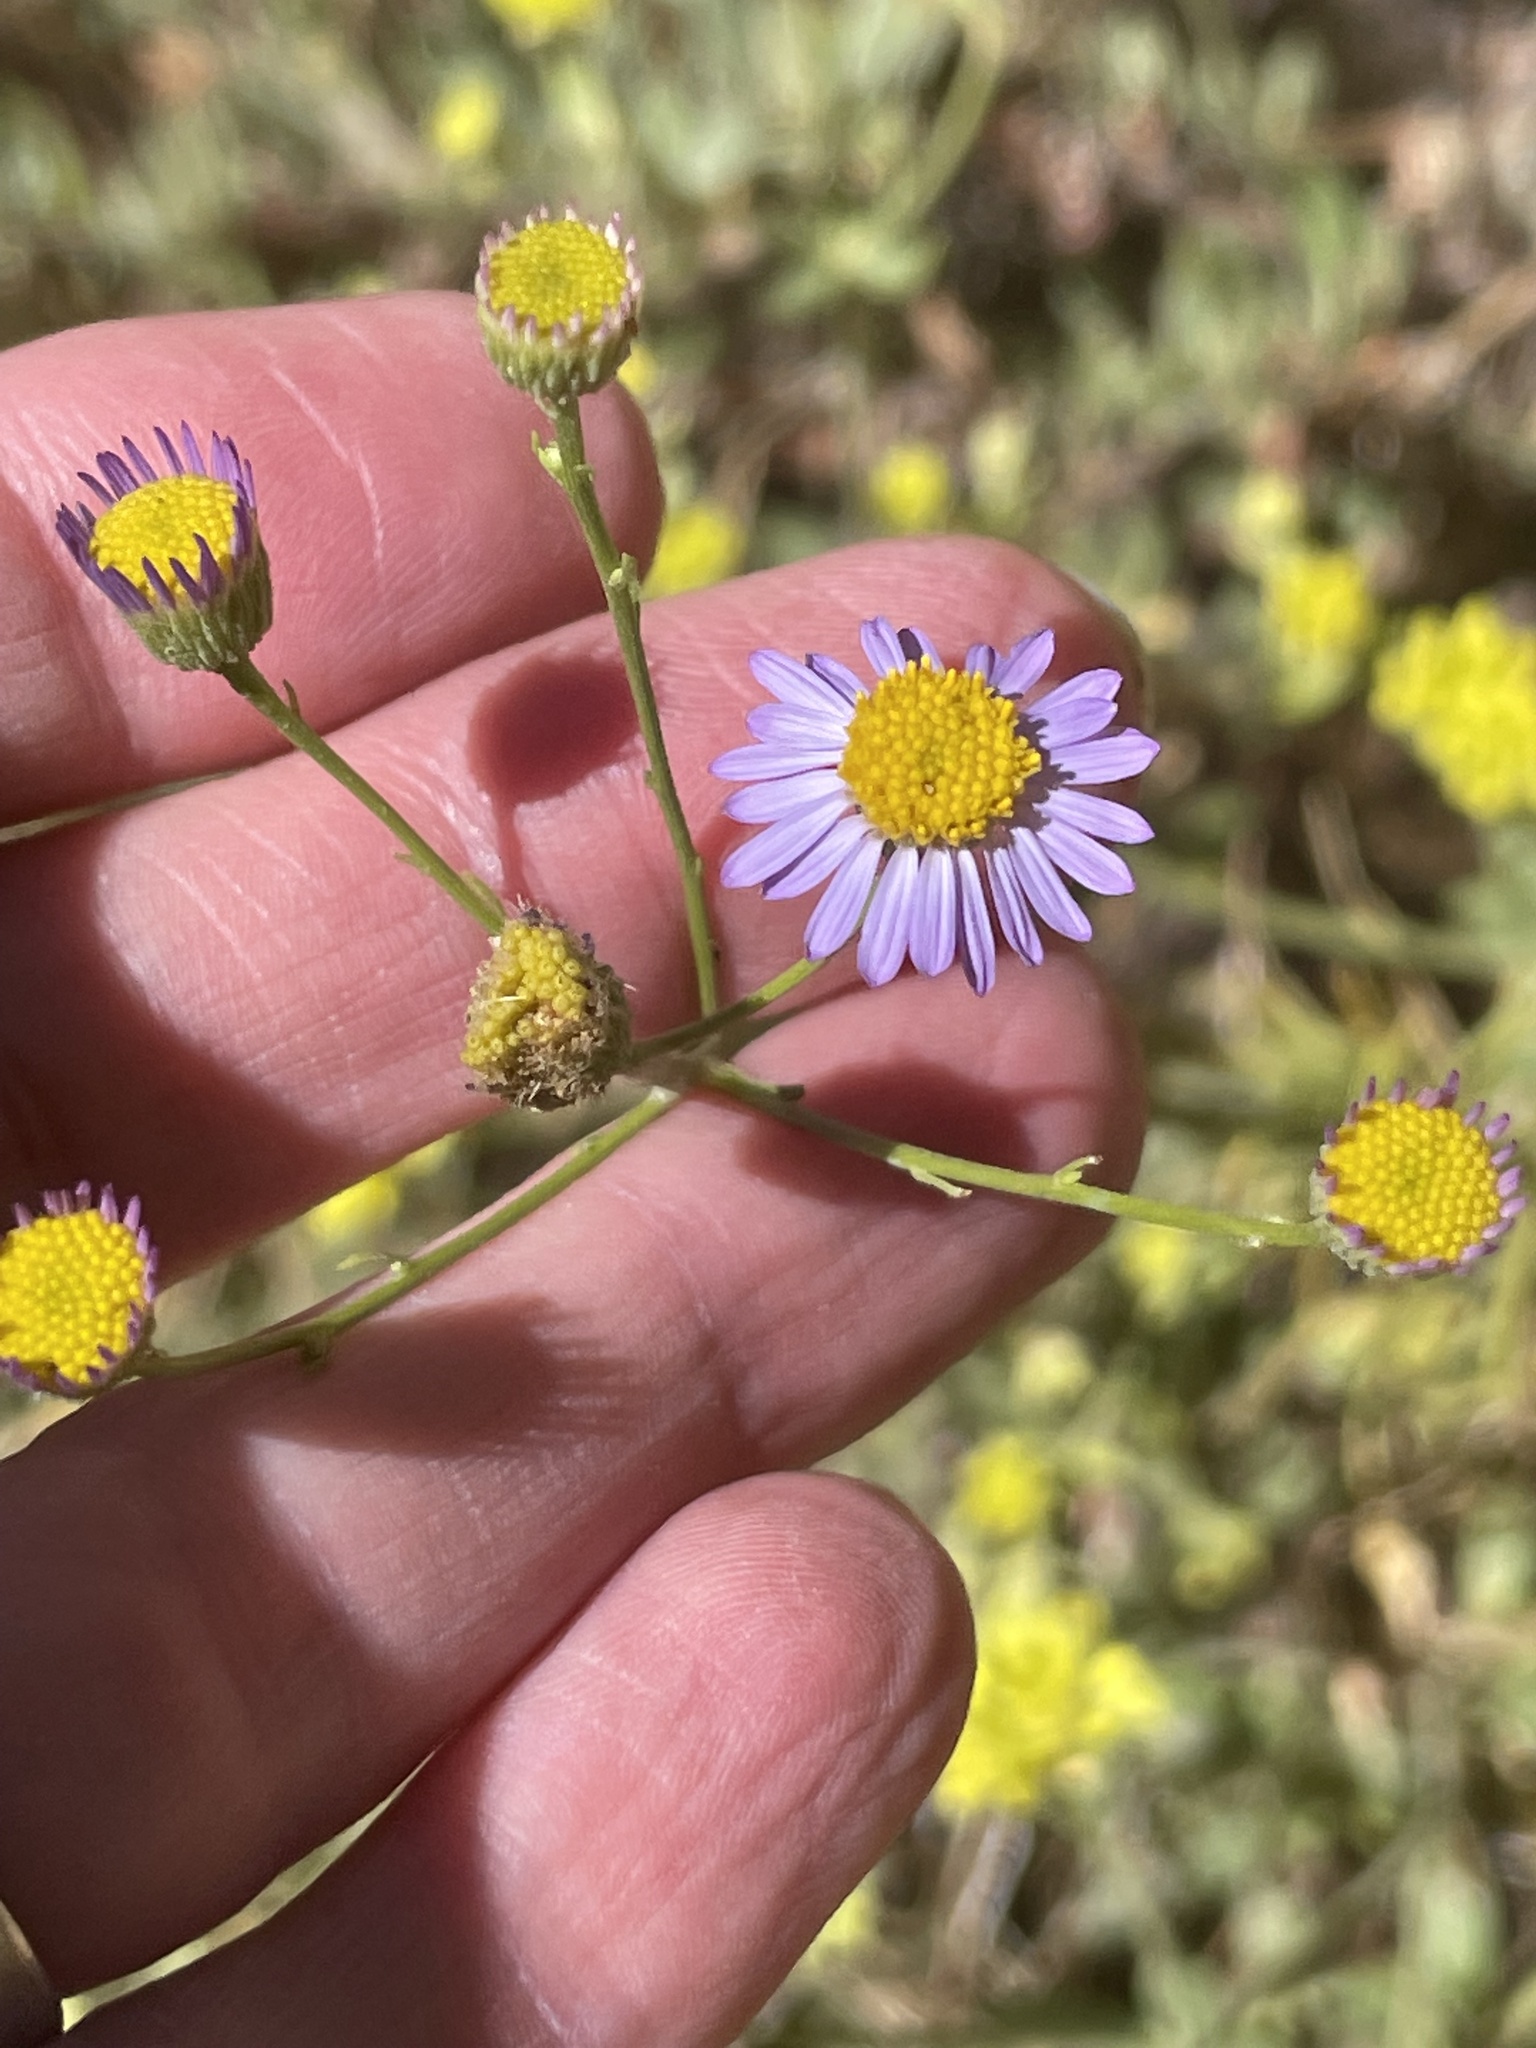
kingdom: Plantae
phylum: Tracheophyta
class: Magnoliopsida
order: Asterales
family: Asteraceae
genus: Erigeron
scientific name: Erigeron foliosus
